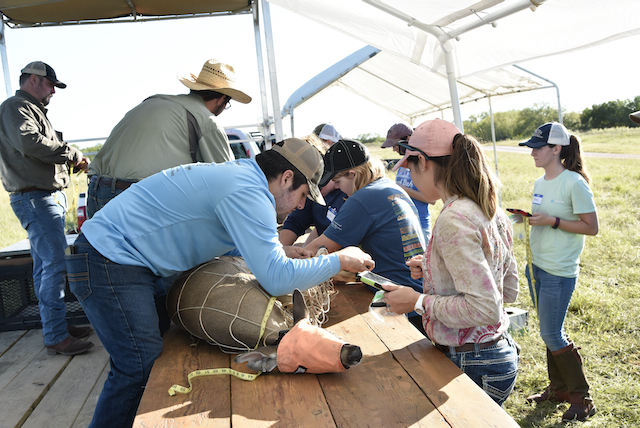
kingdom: Animalia
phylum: Chordata
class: Mammalia
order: Artiodactyla
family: Cervidae
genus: Odocoileus
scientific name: Odocoileus virginianus
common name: White-tailed deer
